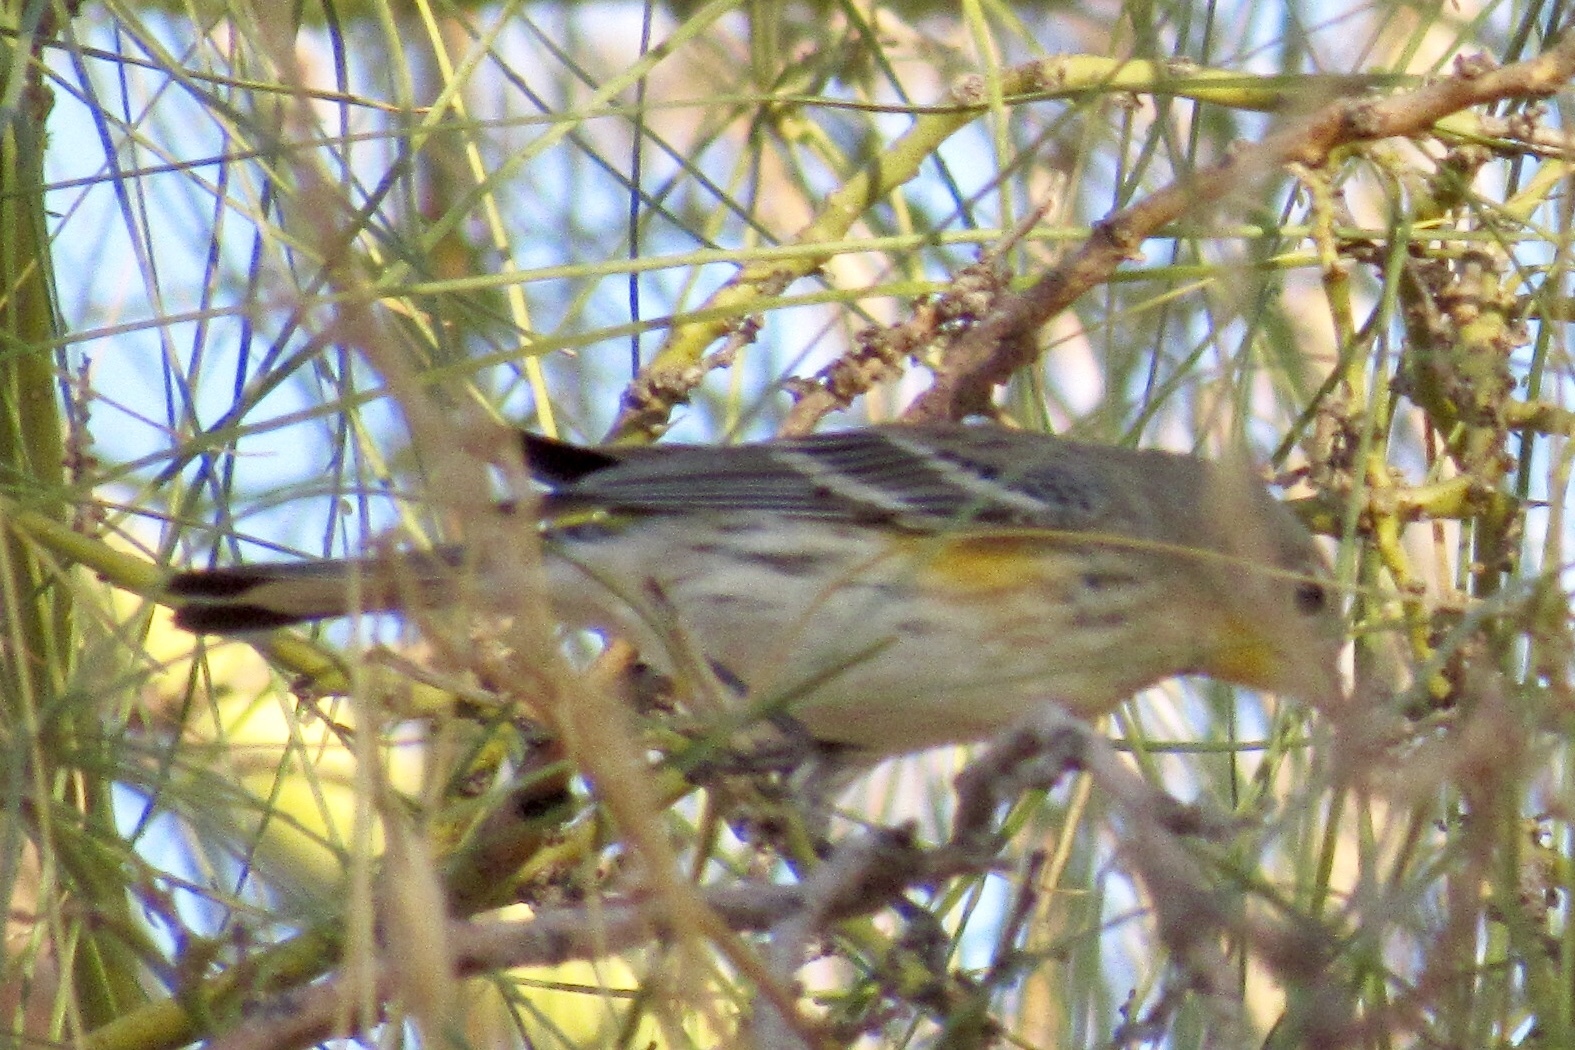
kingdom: Animalia
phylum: Chordata
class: Aves
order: Passeriformes
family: Parulidae
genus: Setophaga
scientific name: Setophaga auduboni
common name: Audubon's warbler
